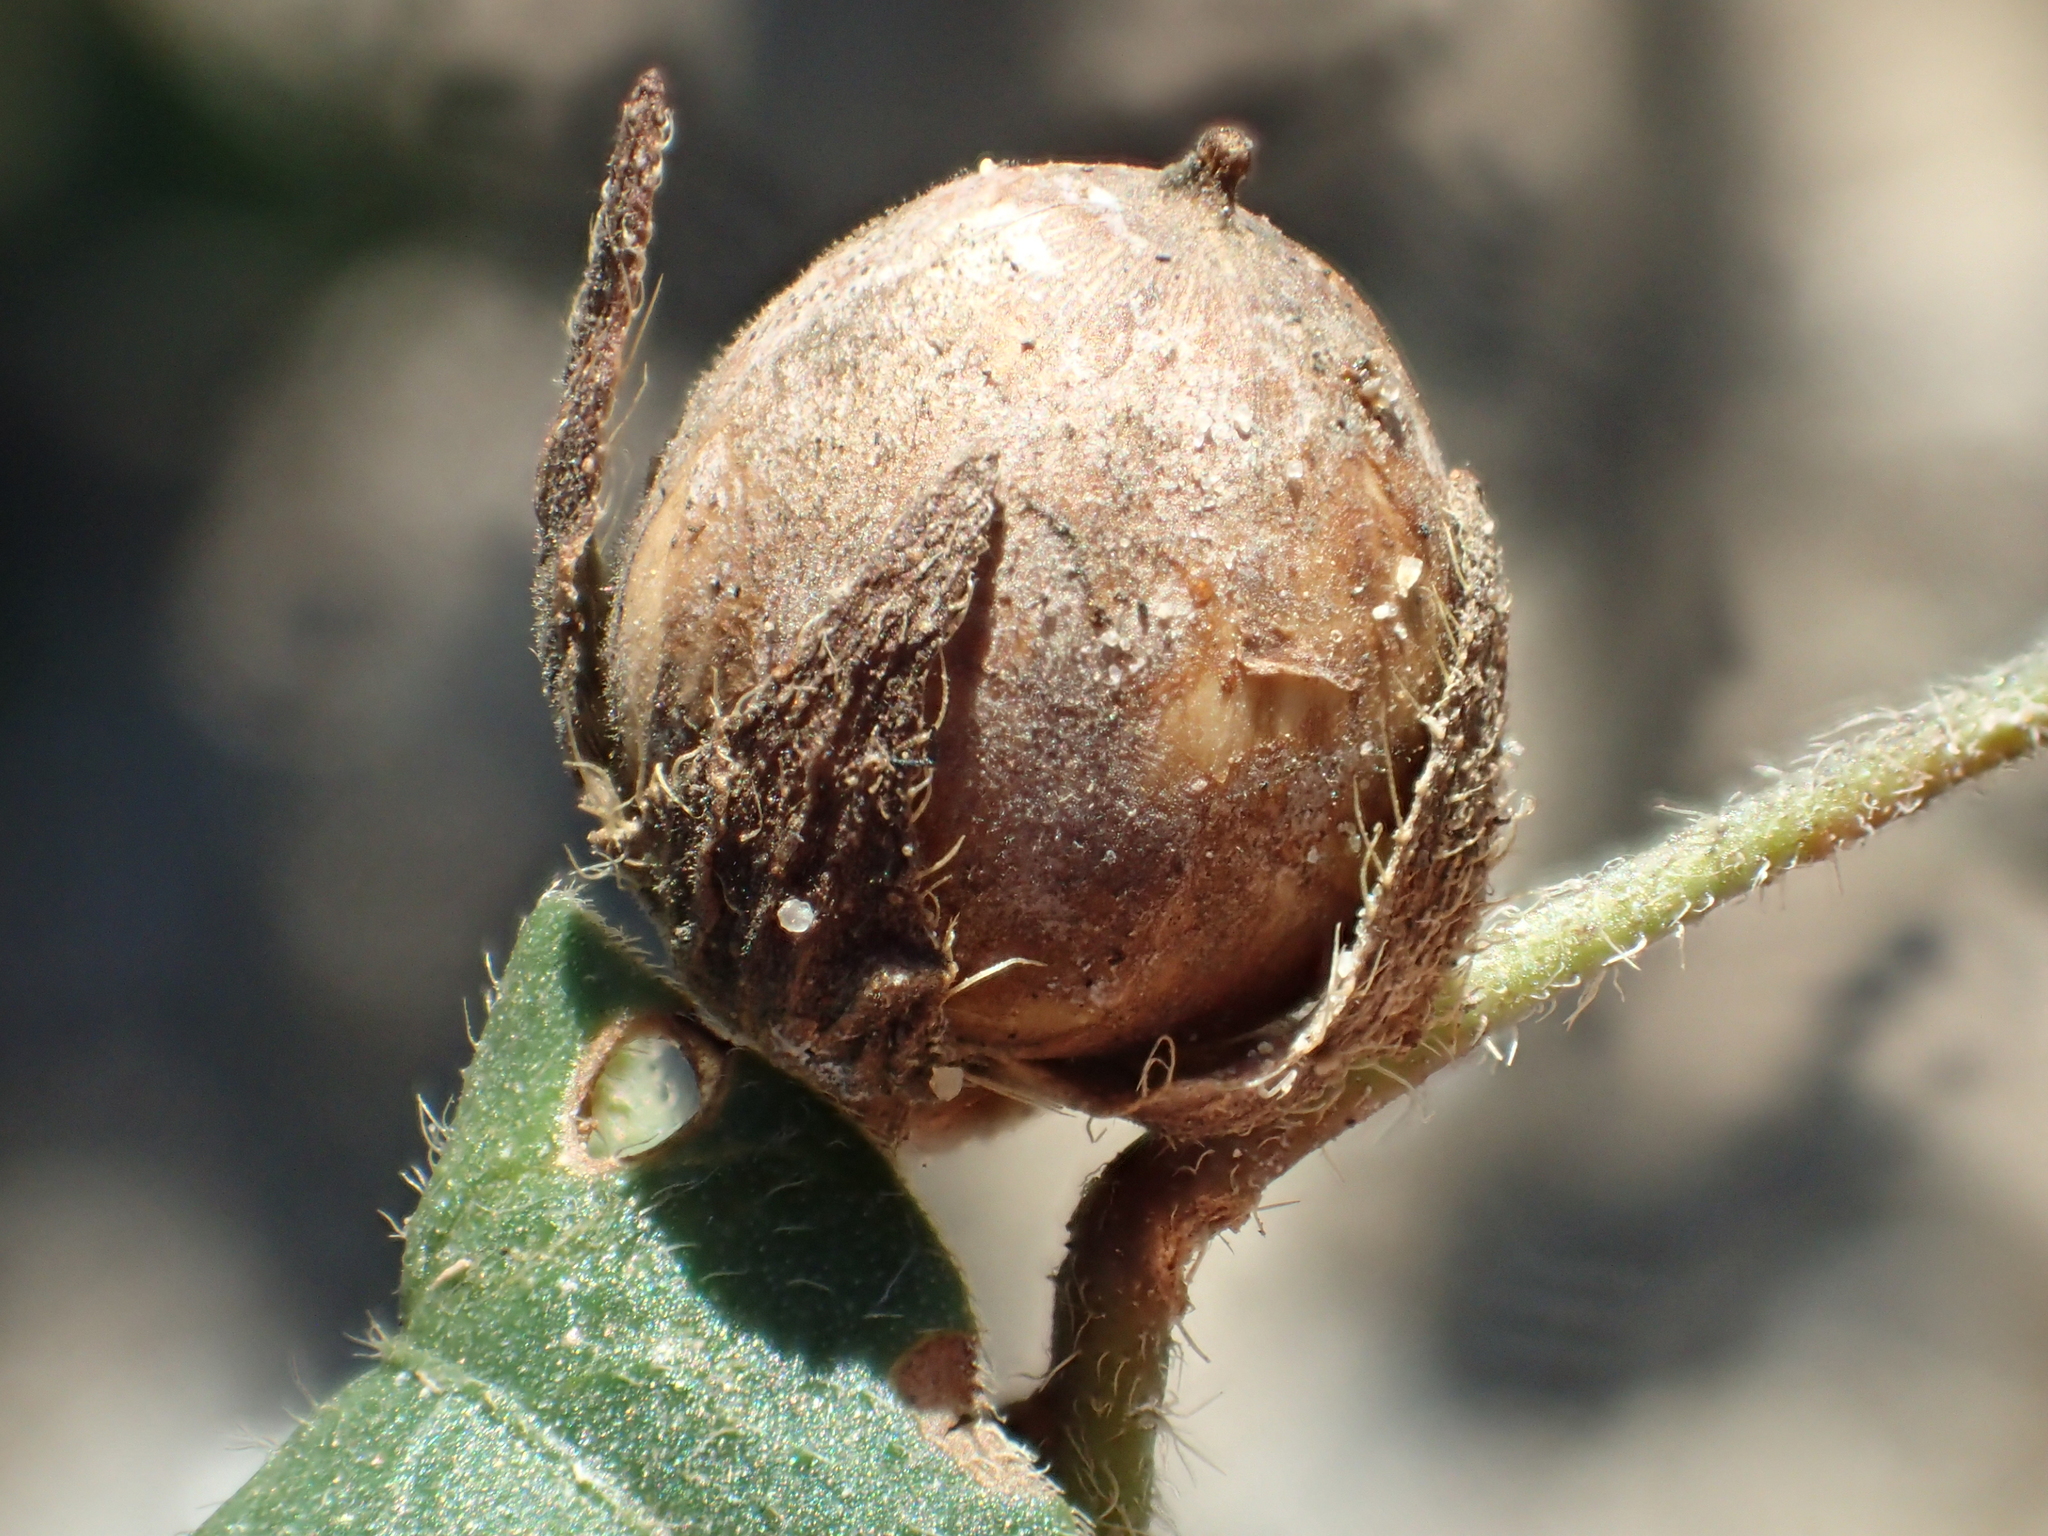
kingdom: Plantae
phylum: Tracheophyta
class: Magnoliopsida
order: Solanales
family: Convolvulaceae
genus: Ipomoea
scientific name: Ipomoea biflora
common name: Bellvine
